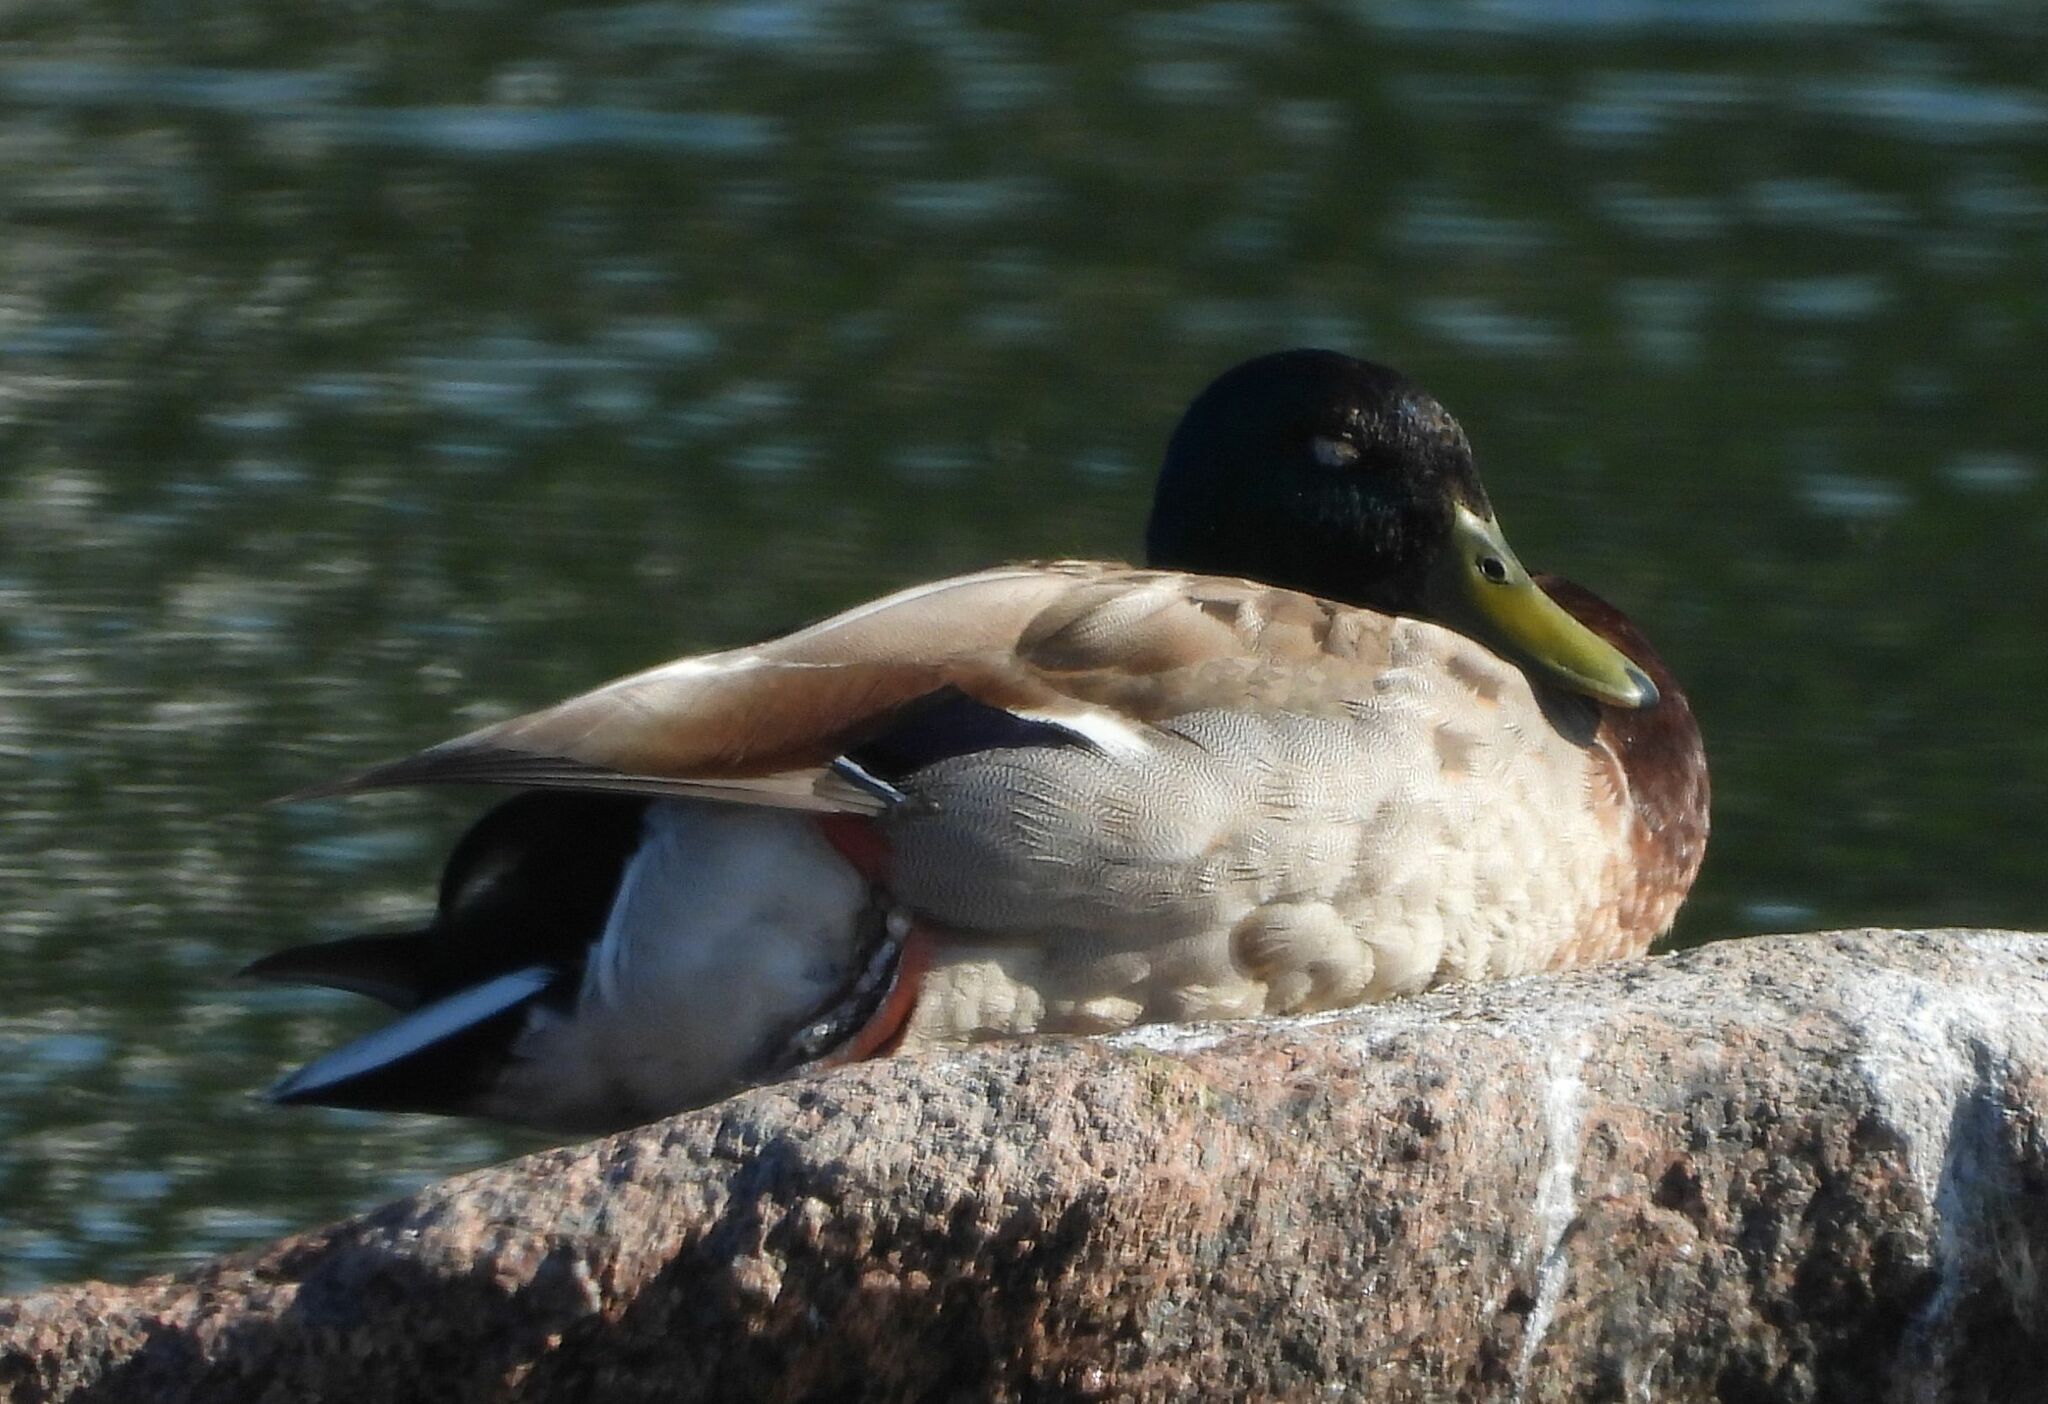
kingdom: Animalia
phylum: Chordata
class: Aves
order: Anseriformes
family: Anatidae
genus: Anas
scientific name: Anas platyrhynchos
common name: Mallard
